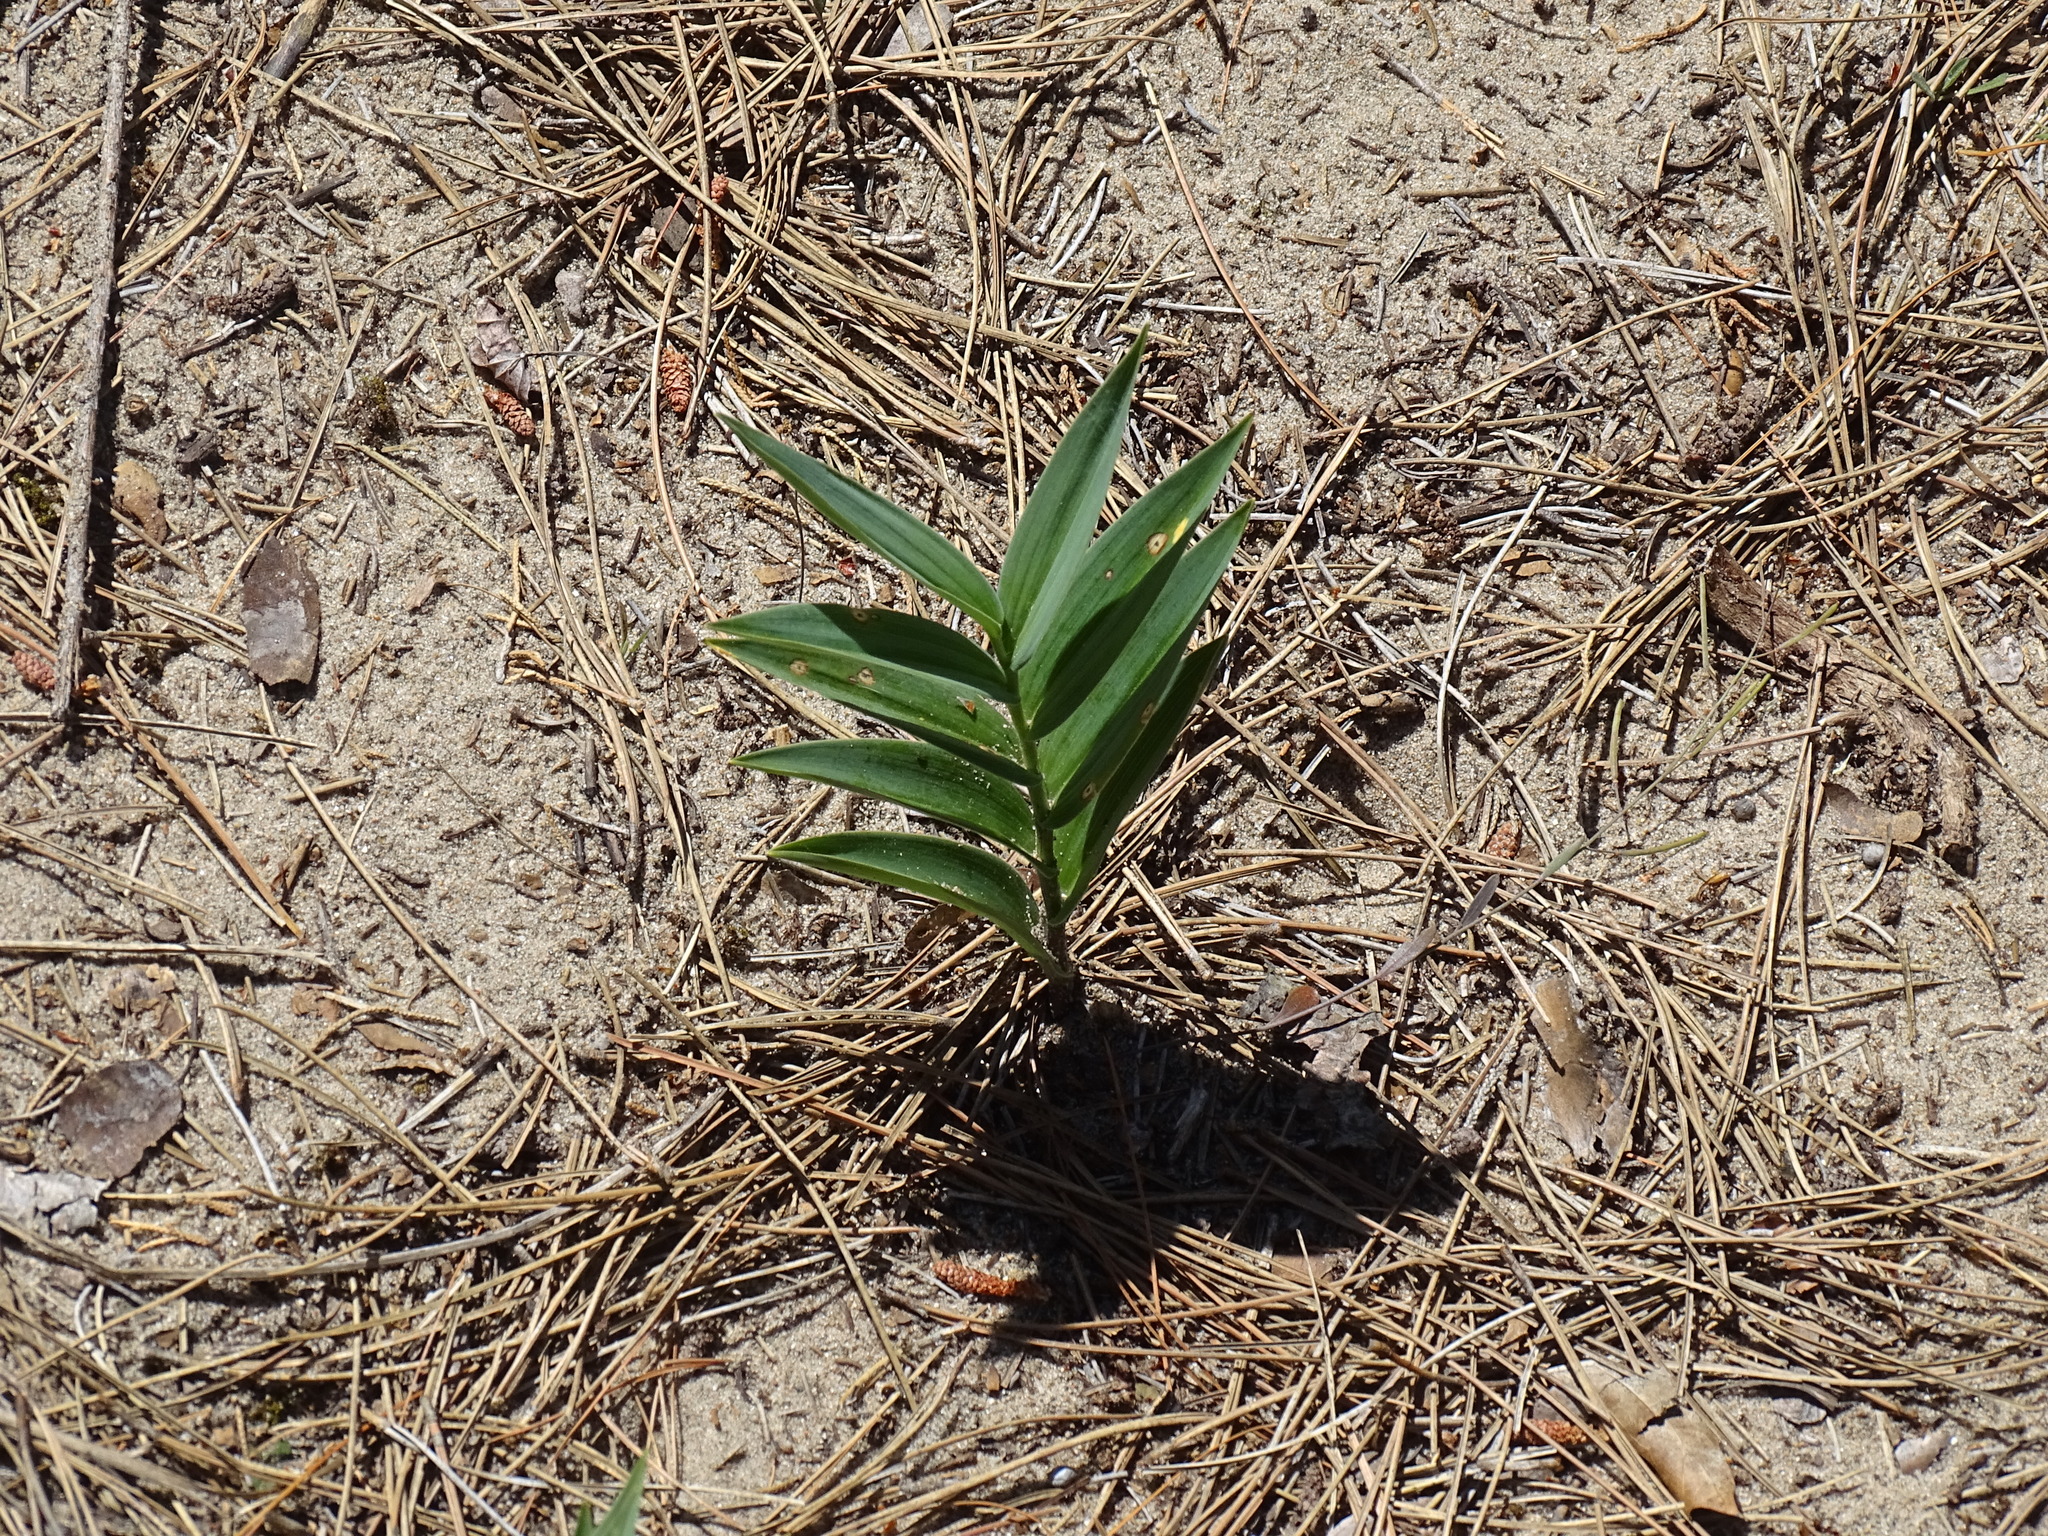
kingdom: Plantae
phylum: Tracheophyta
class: Liliopsida
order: Asparagales
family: Asparagaceae
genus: Maianthemum
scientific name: Maianthemum stellatum
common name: Little false solomon's seal
